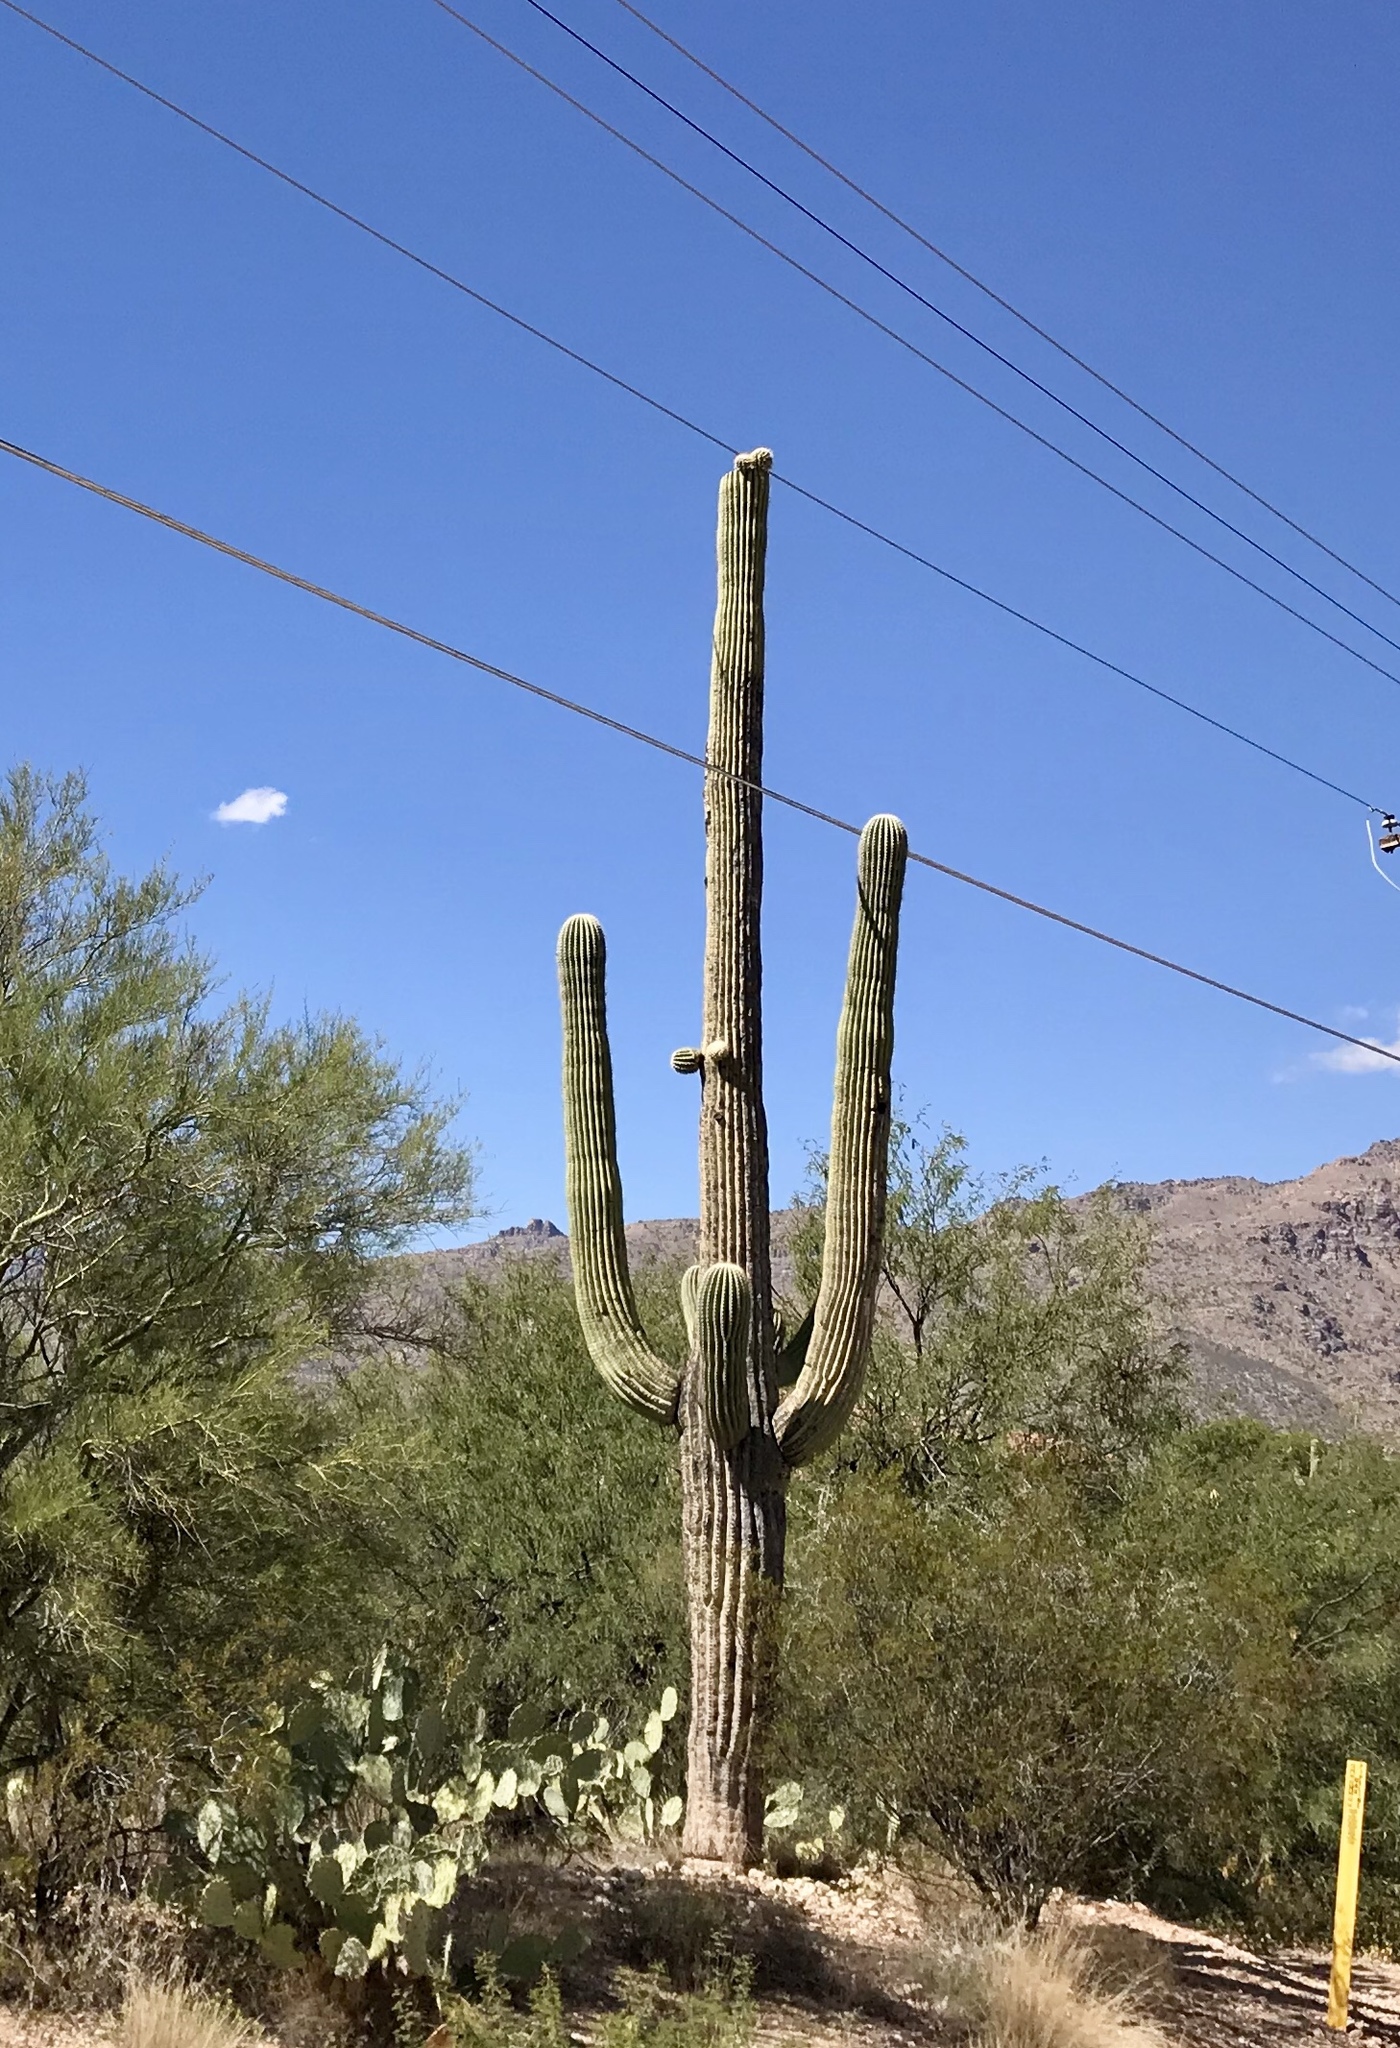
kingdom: Plantae
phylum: Tracheophyta
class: Magnoliopsida
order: Caryophyllales
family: Cactaceae
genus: Carnegiea
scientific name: Carnegiea gigantea
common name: Saguaro
